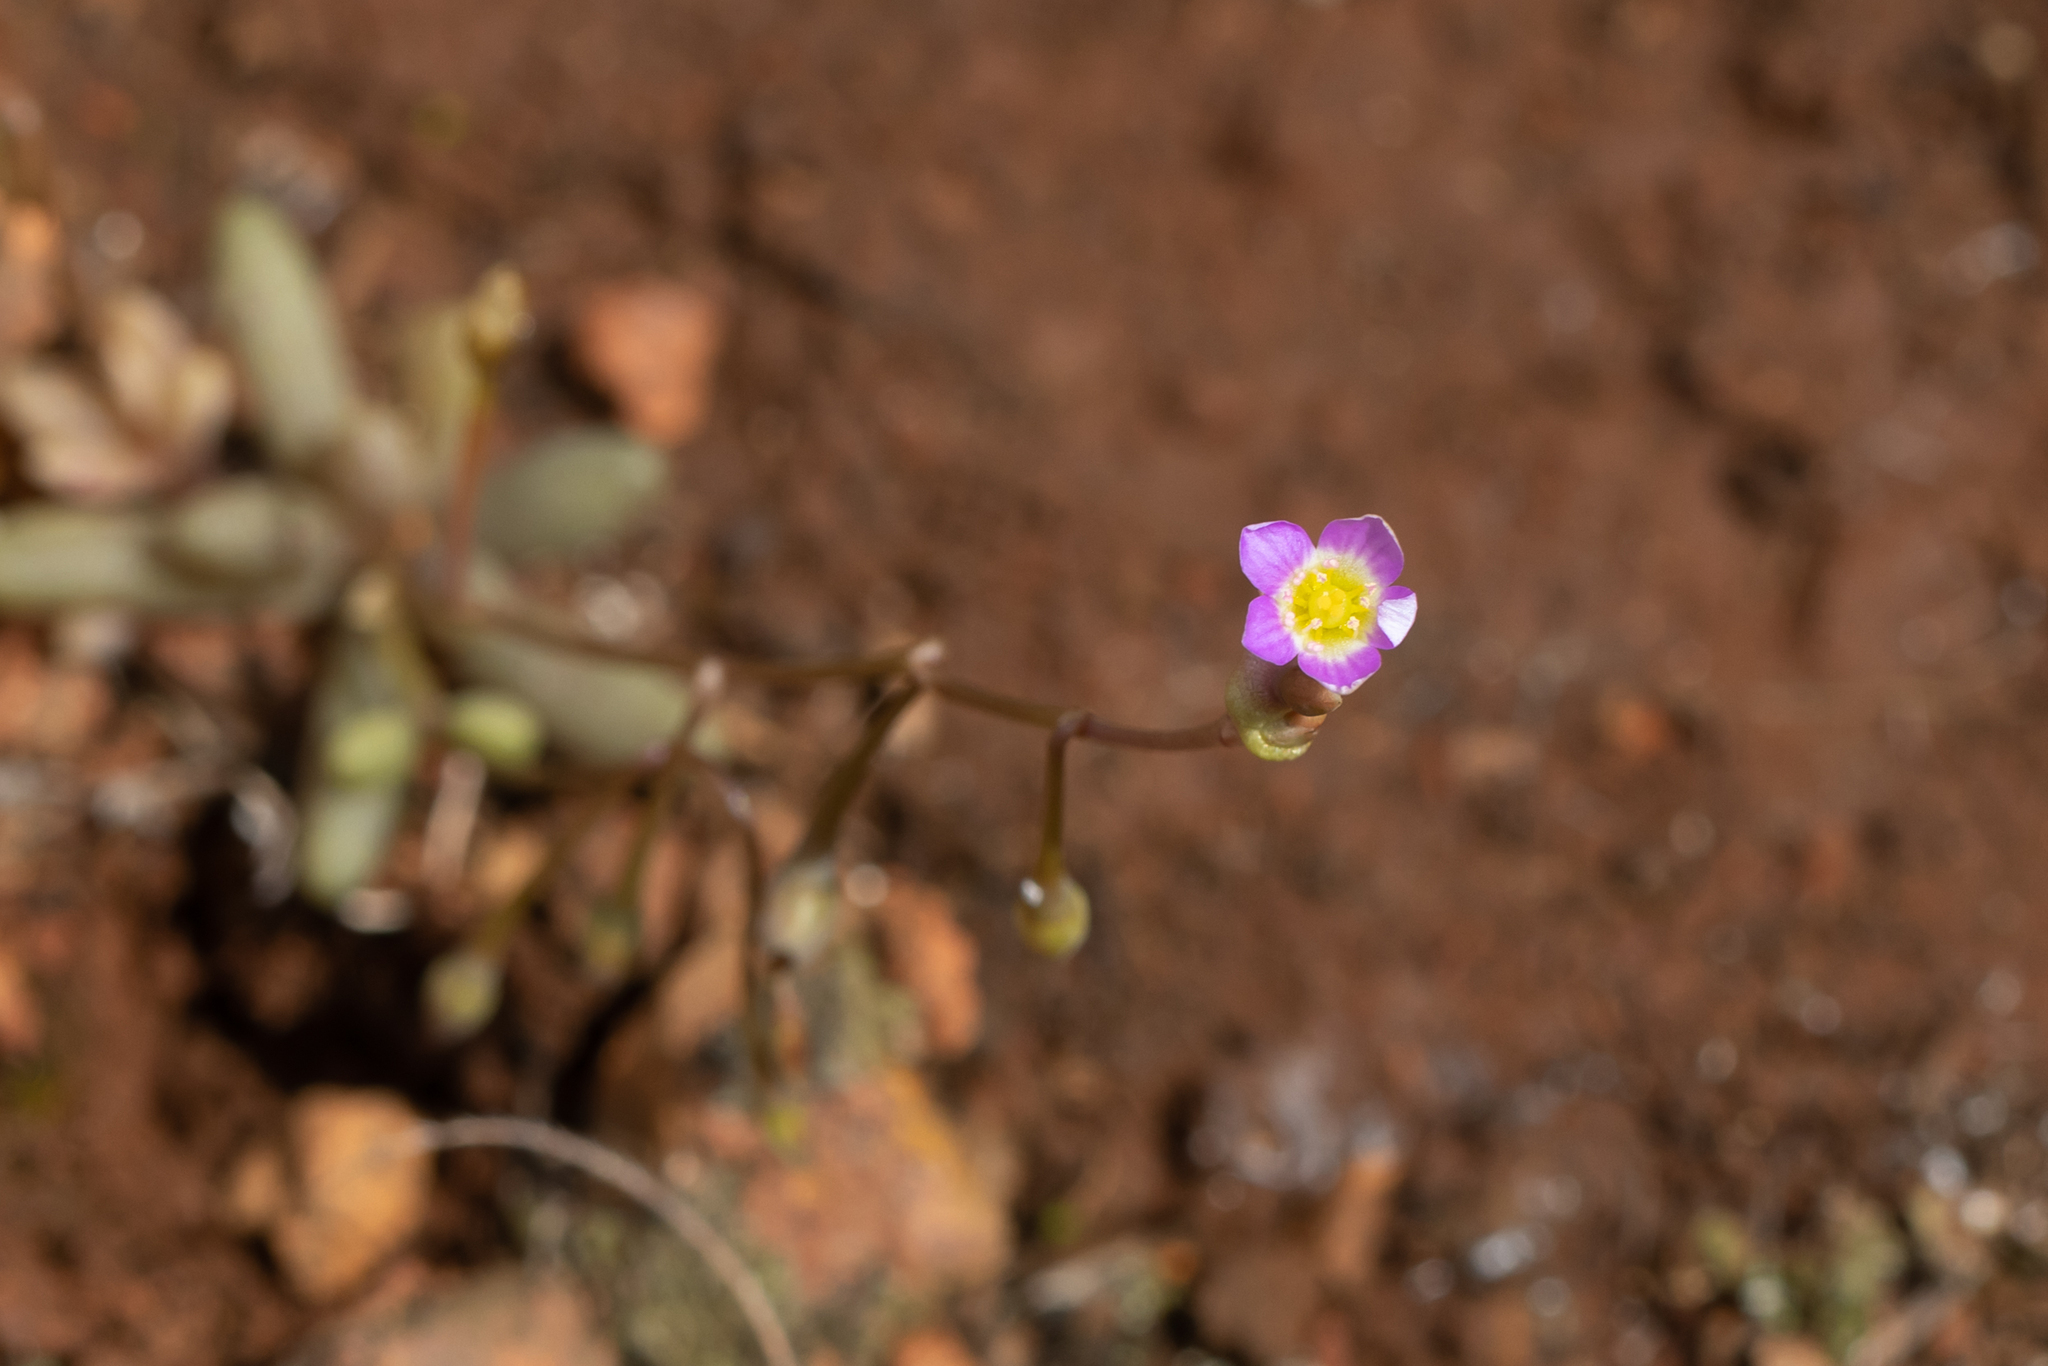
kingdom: Plantae
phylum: Tracheophyta
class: Magnoliopsida
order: Caryophyllales
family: Montiaceae
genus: Rumicastrum
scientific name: Rumicastrum eremaeum
